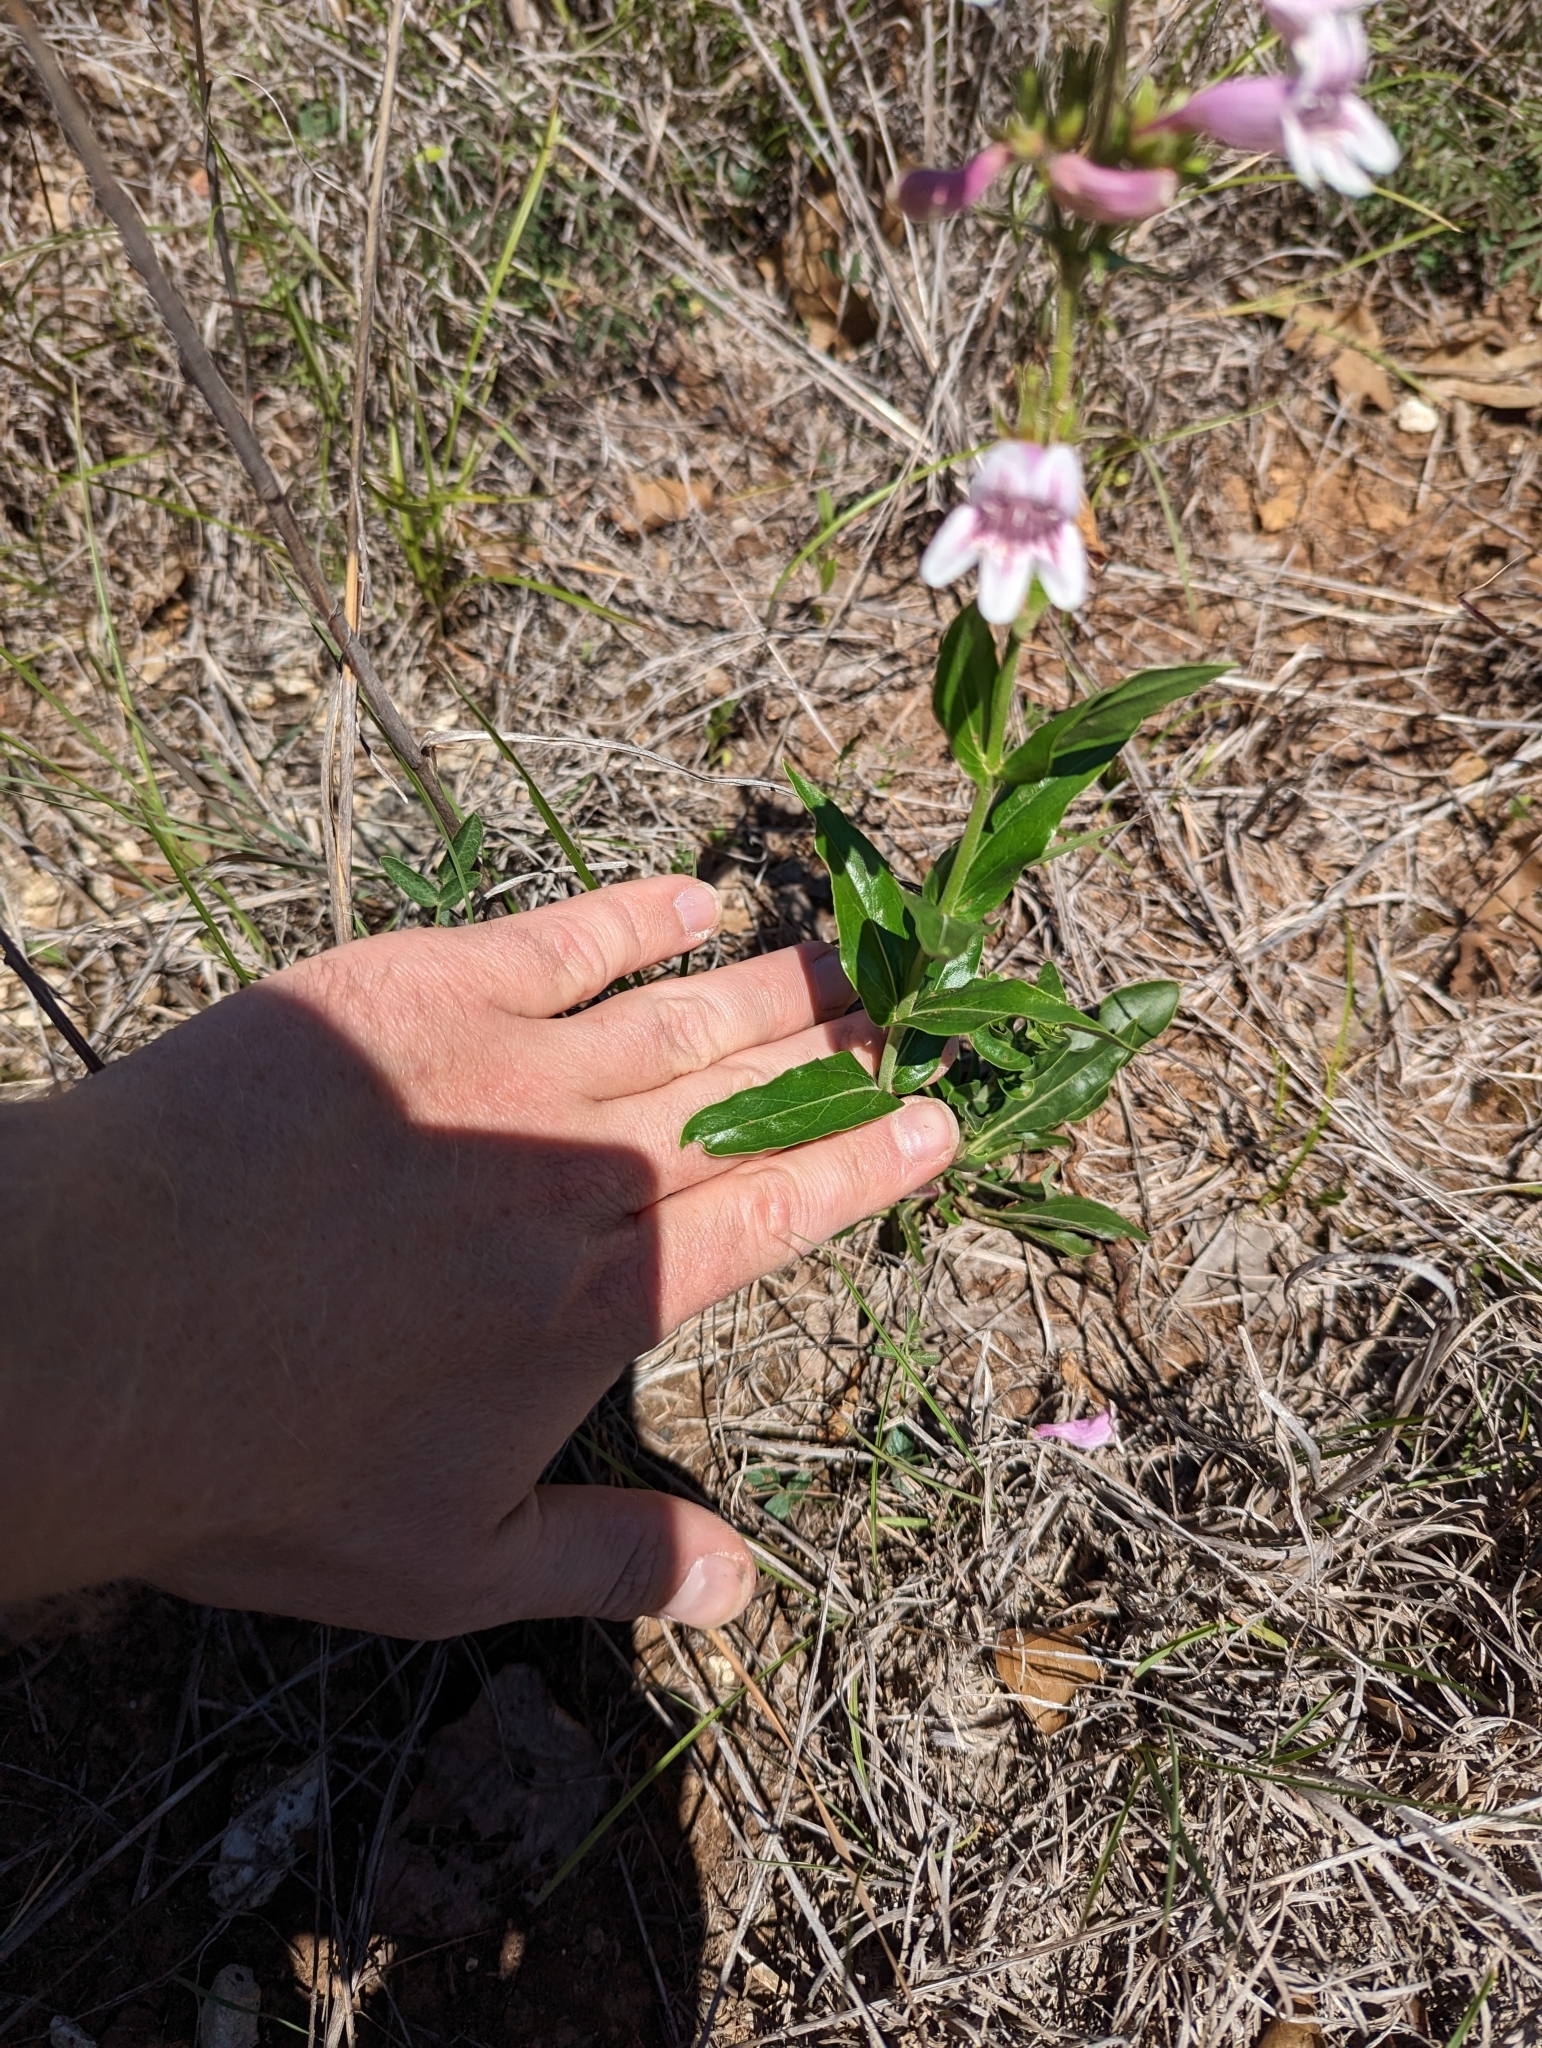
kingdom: Plantae
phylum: Tracheophyta
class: Magnoliopsida
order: Lamiales
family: Plantaginaceae
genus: Penstemon
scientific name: Penstemon cobaea
